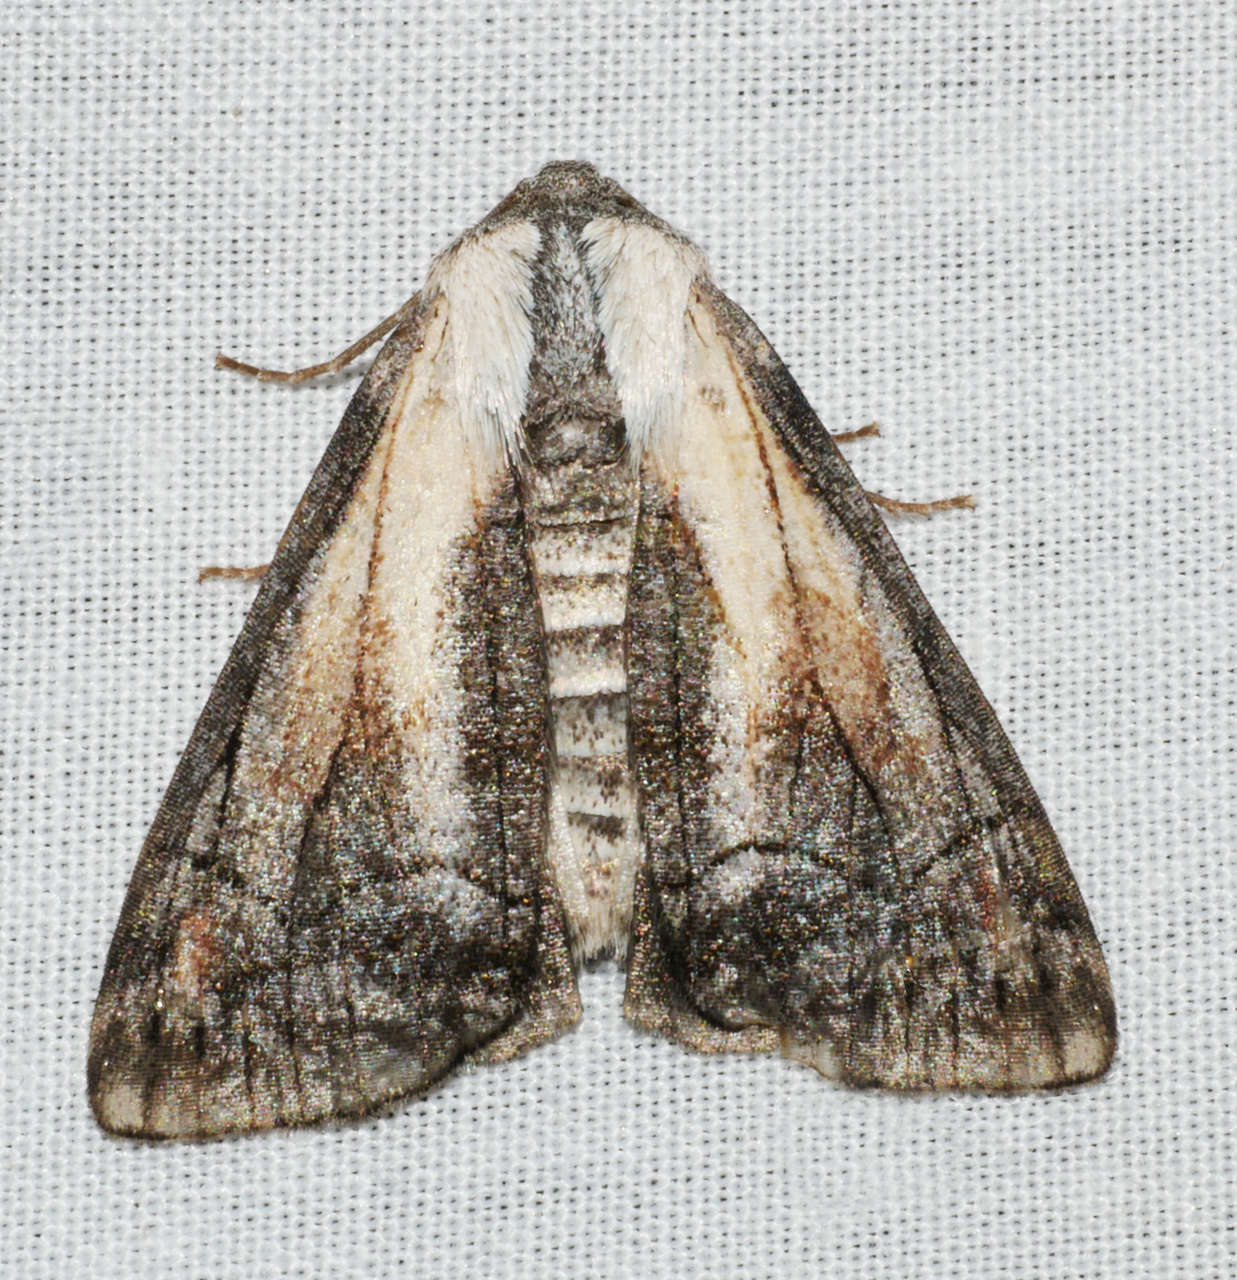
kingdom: Animalia
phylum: Arthropoda
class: Insecta
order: Lepidoptera
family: Geometridae
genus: Stibaractis
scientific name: Stibaractis melanotoxa
